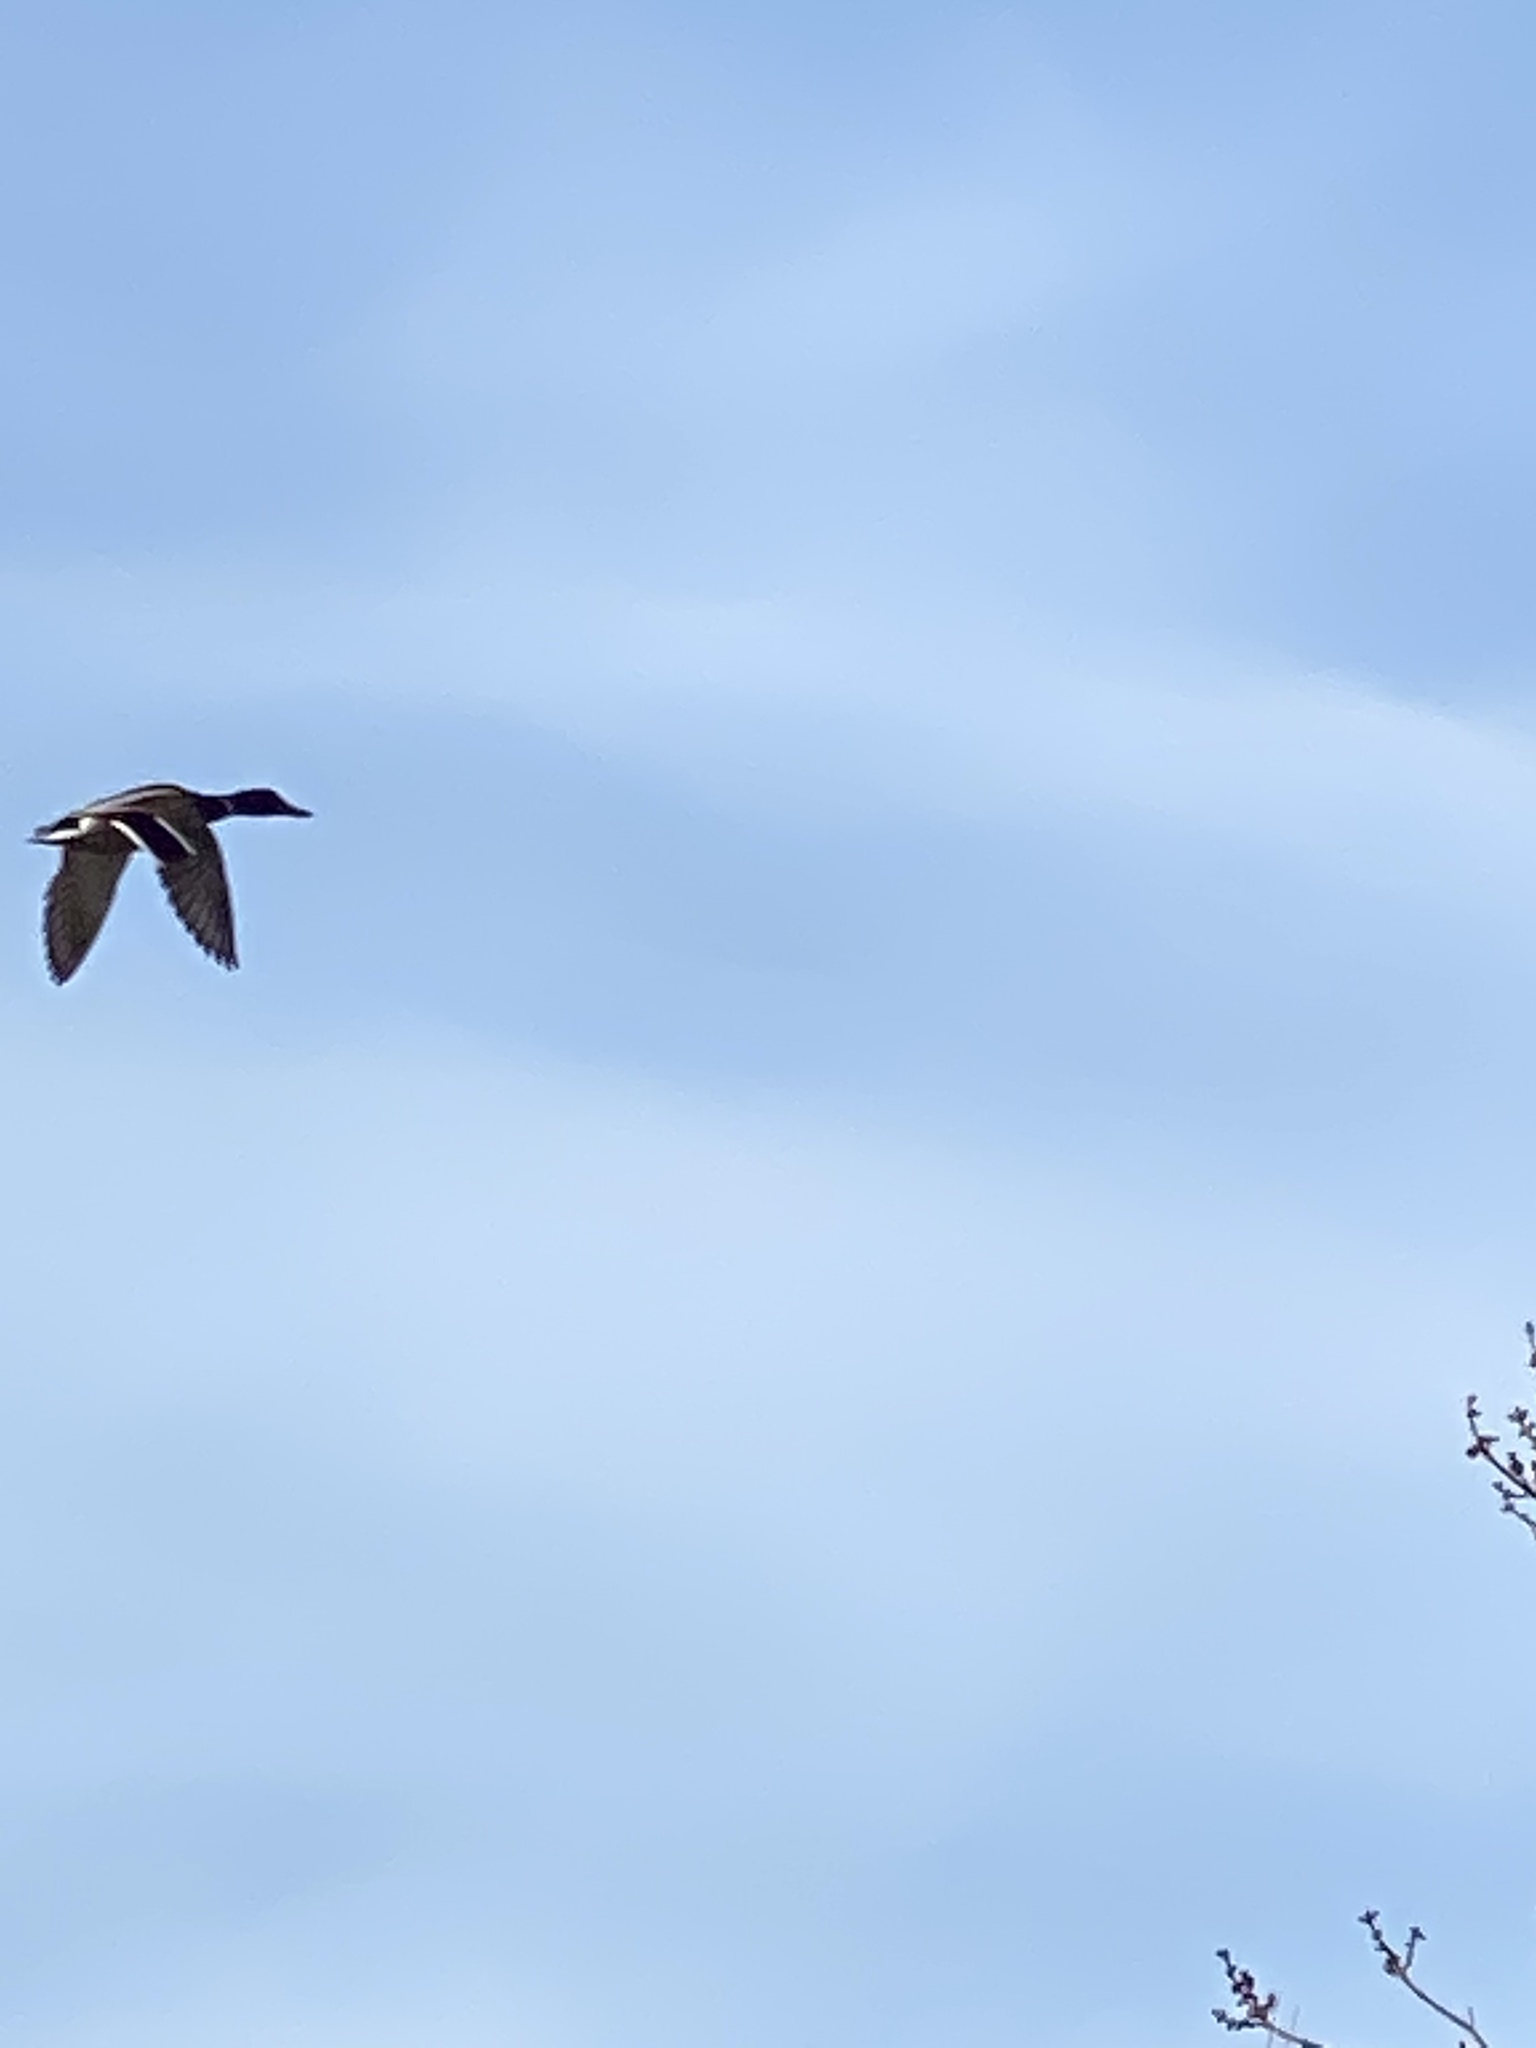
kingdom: Animalia
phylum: Chordata
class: Aves
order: Anseriformes
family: Anatidae
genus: Anas
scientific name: Anas platyrhynchos
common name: Mallard
